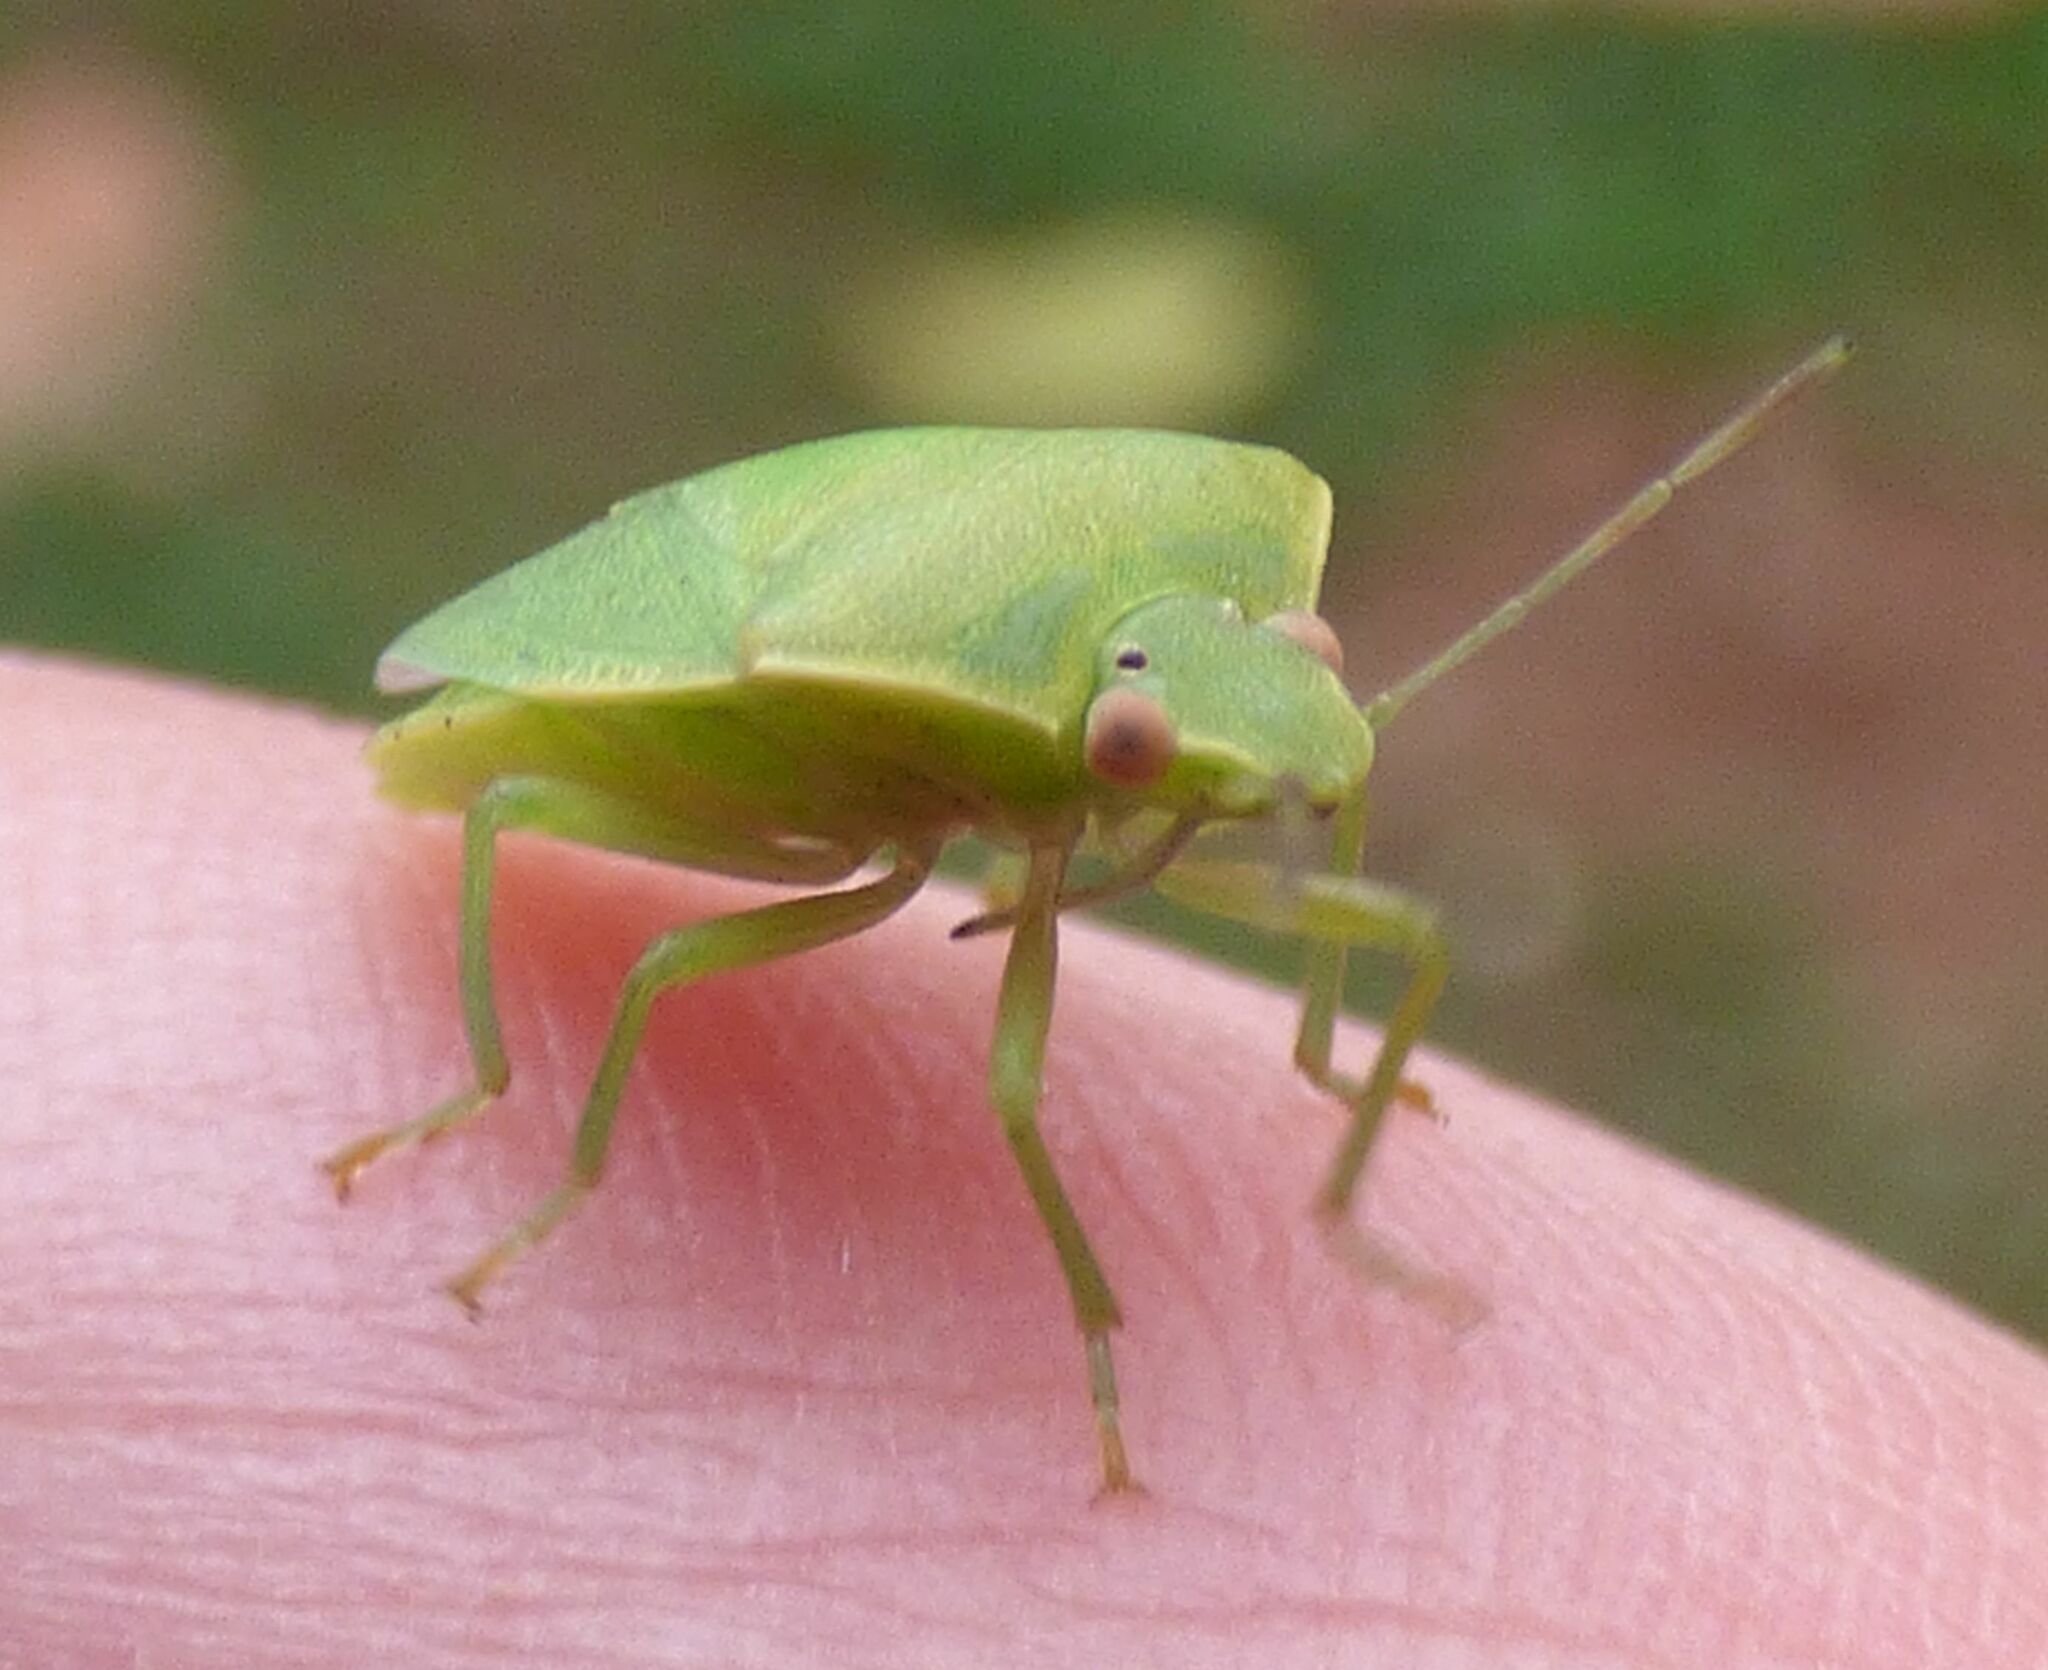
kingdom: Animalia
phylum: Arthropoda
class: Insecta
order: Hemiptera
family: Pentatomidae
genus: Acrosternum
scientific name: Acrosternum heegeri
